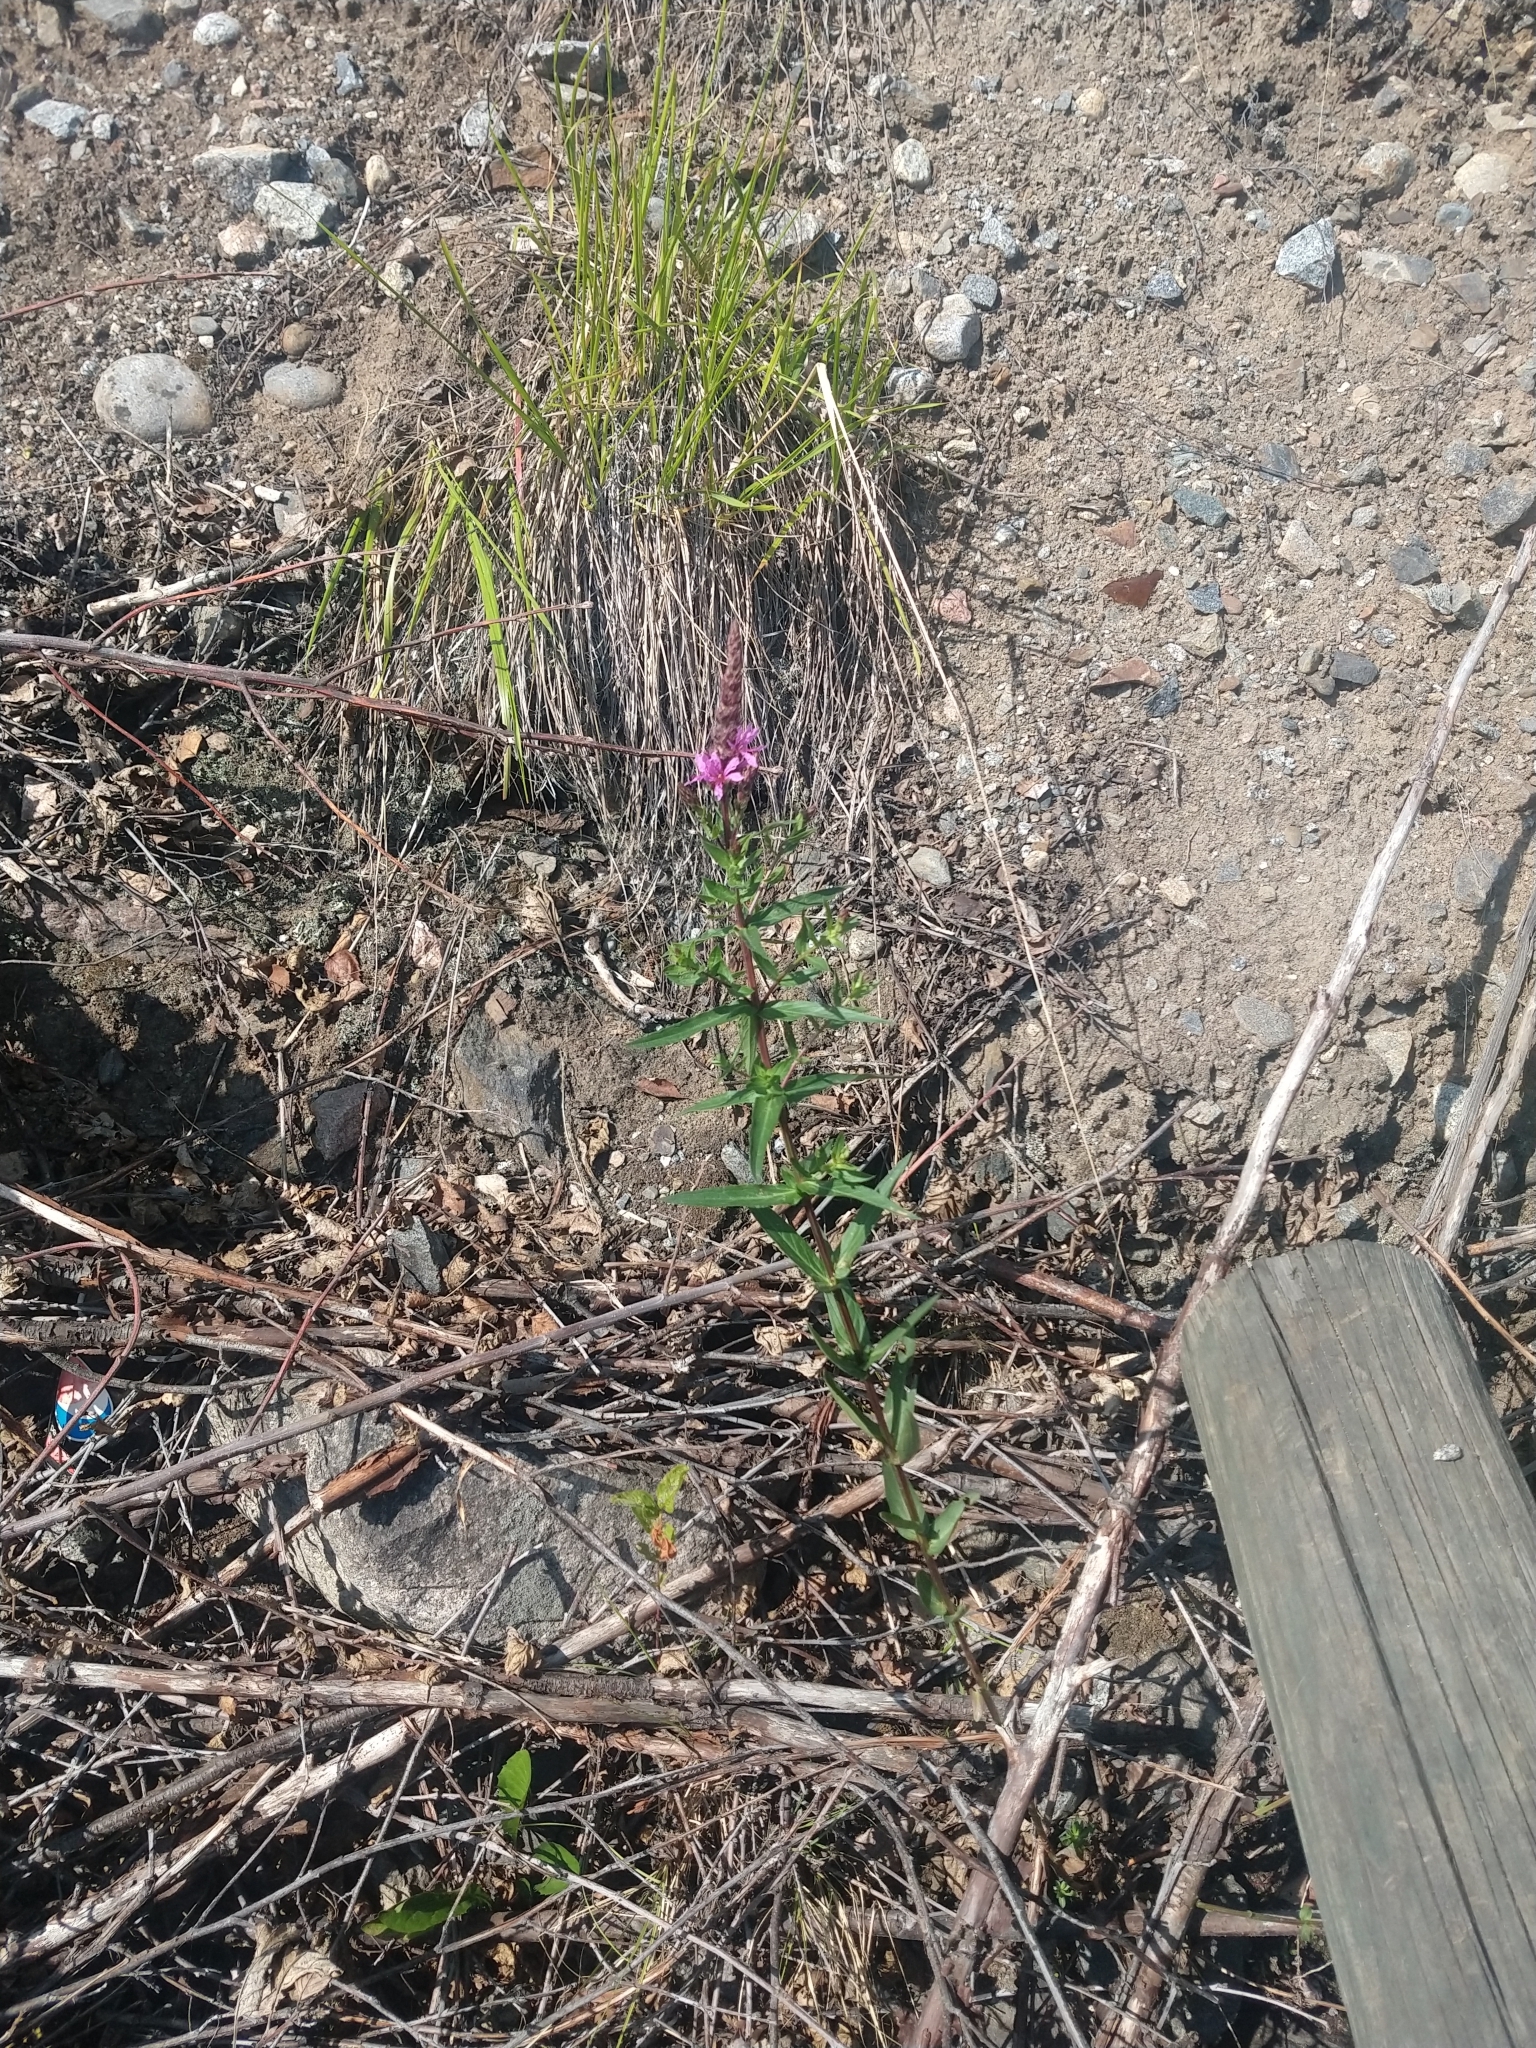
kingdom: Plantae
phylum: Tracheophyta
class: Magnoliopsida
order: Myrtales
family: Lythraceae
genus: Lythrum
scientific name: Lythrum salicaria
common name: Purple loosestrife
